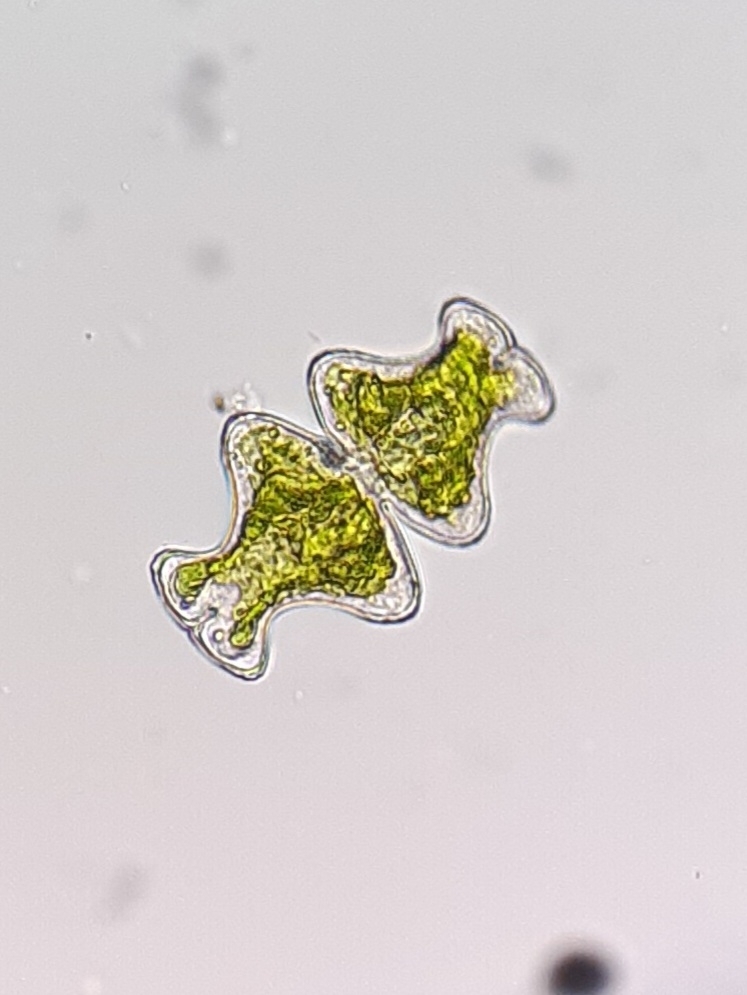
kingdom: Plantae
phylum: Charophyta
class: Conjugatophyceae
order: Desmidiales
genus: Euastrum
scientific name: Euastrum intermedium
